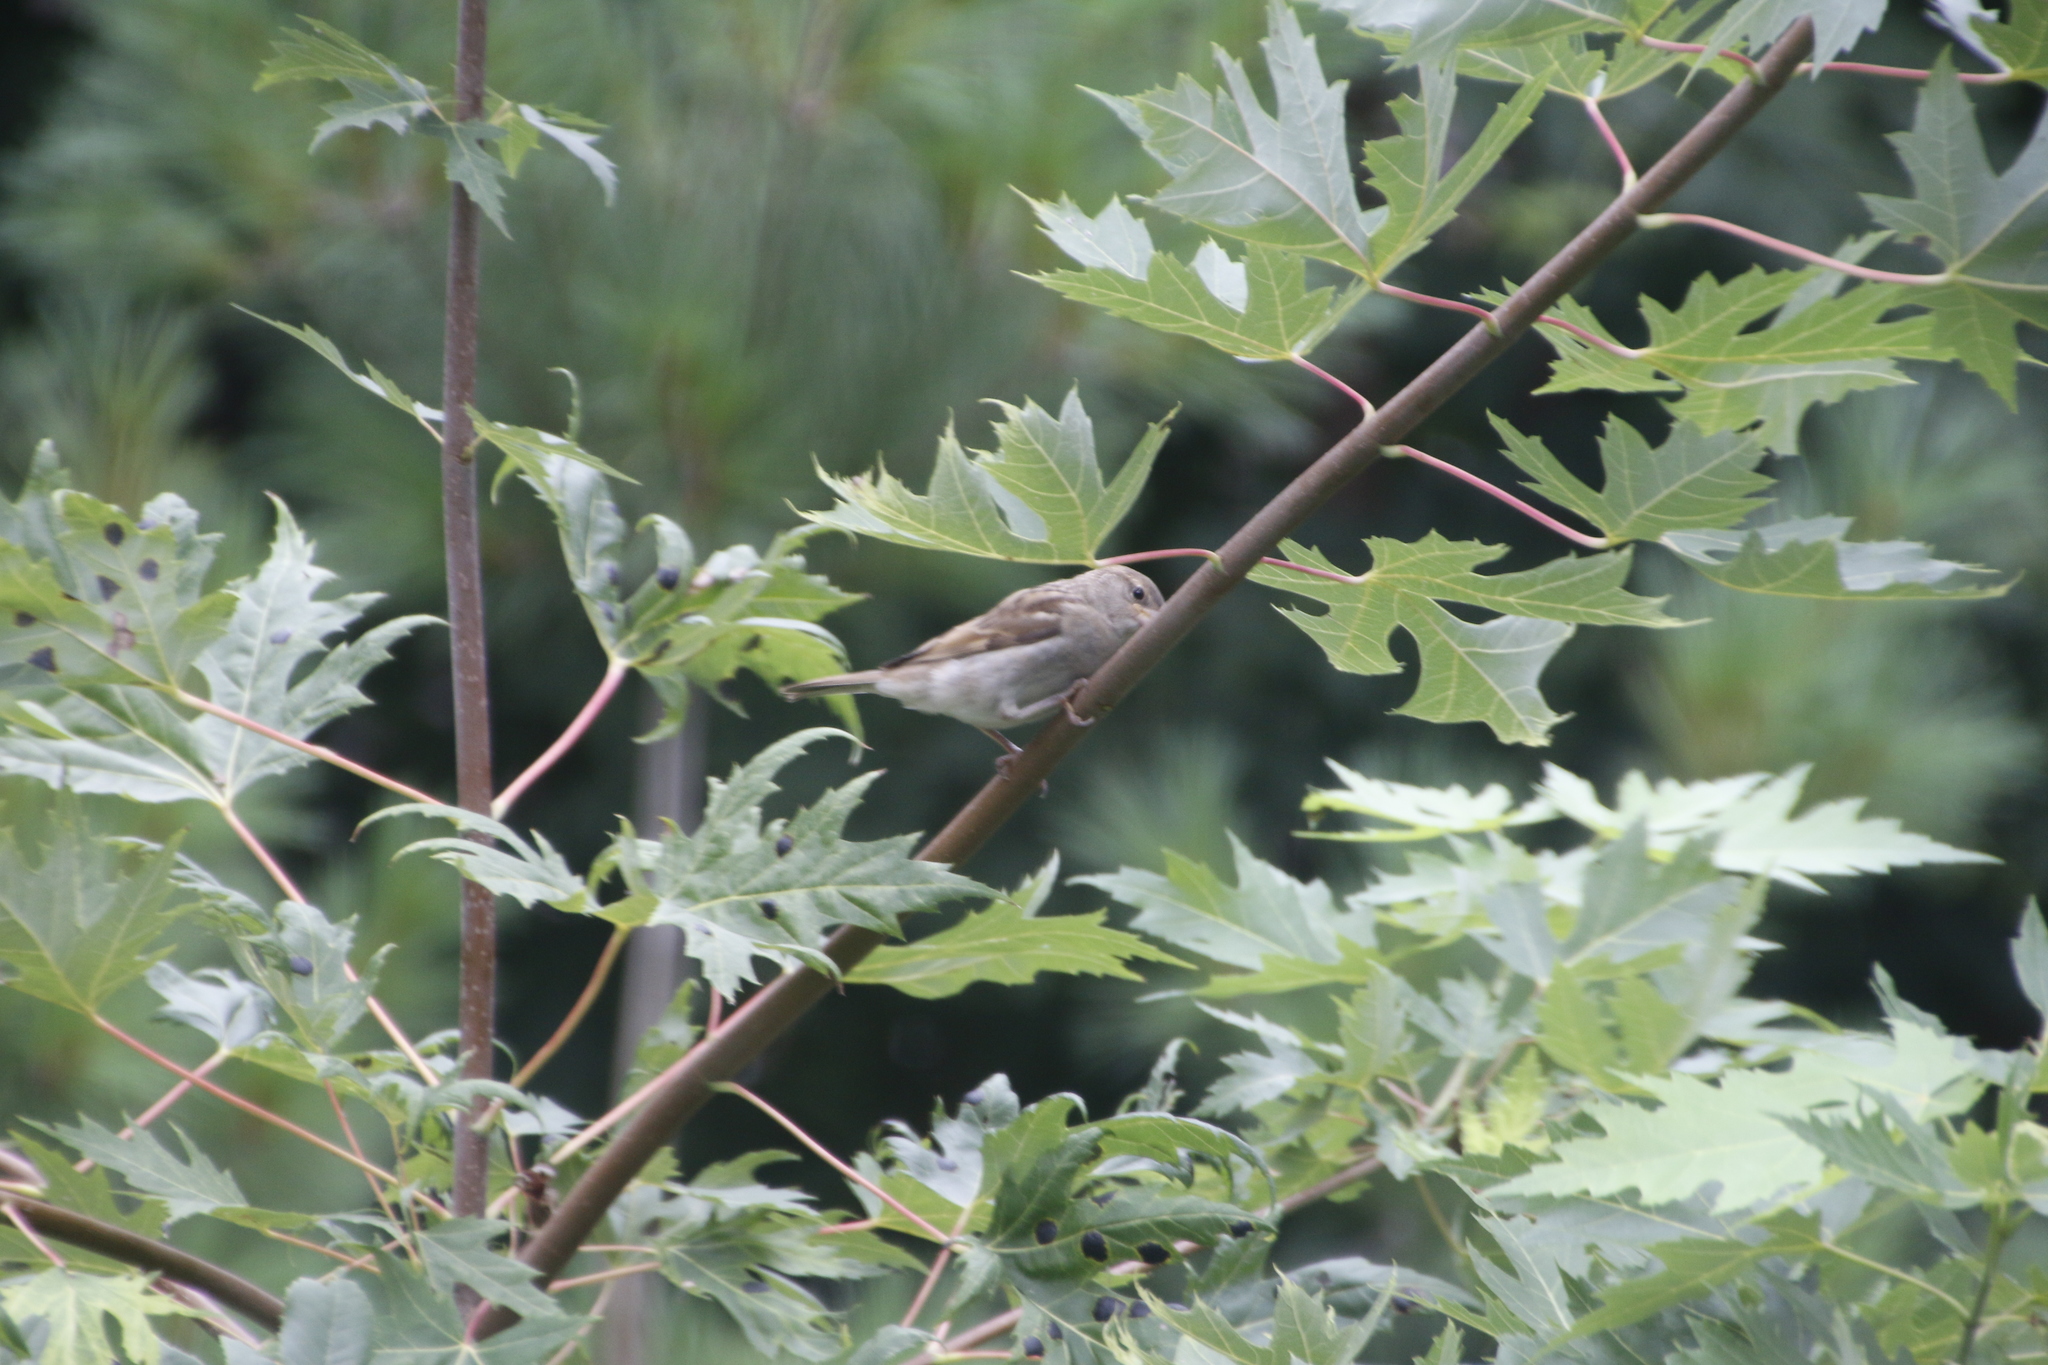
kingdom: Animalia
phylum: Chordata
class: Aves
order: Passeriformes
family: Passeridae
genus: Passer
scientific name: Passer domesticus
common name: House sparrow
